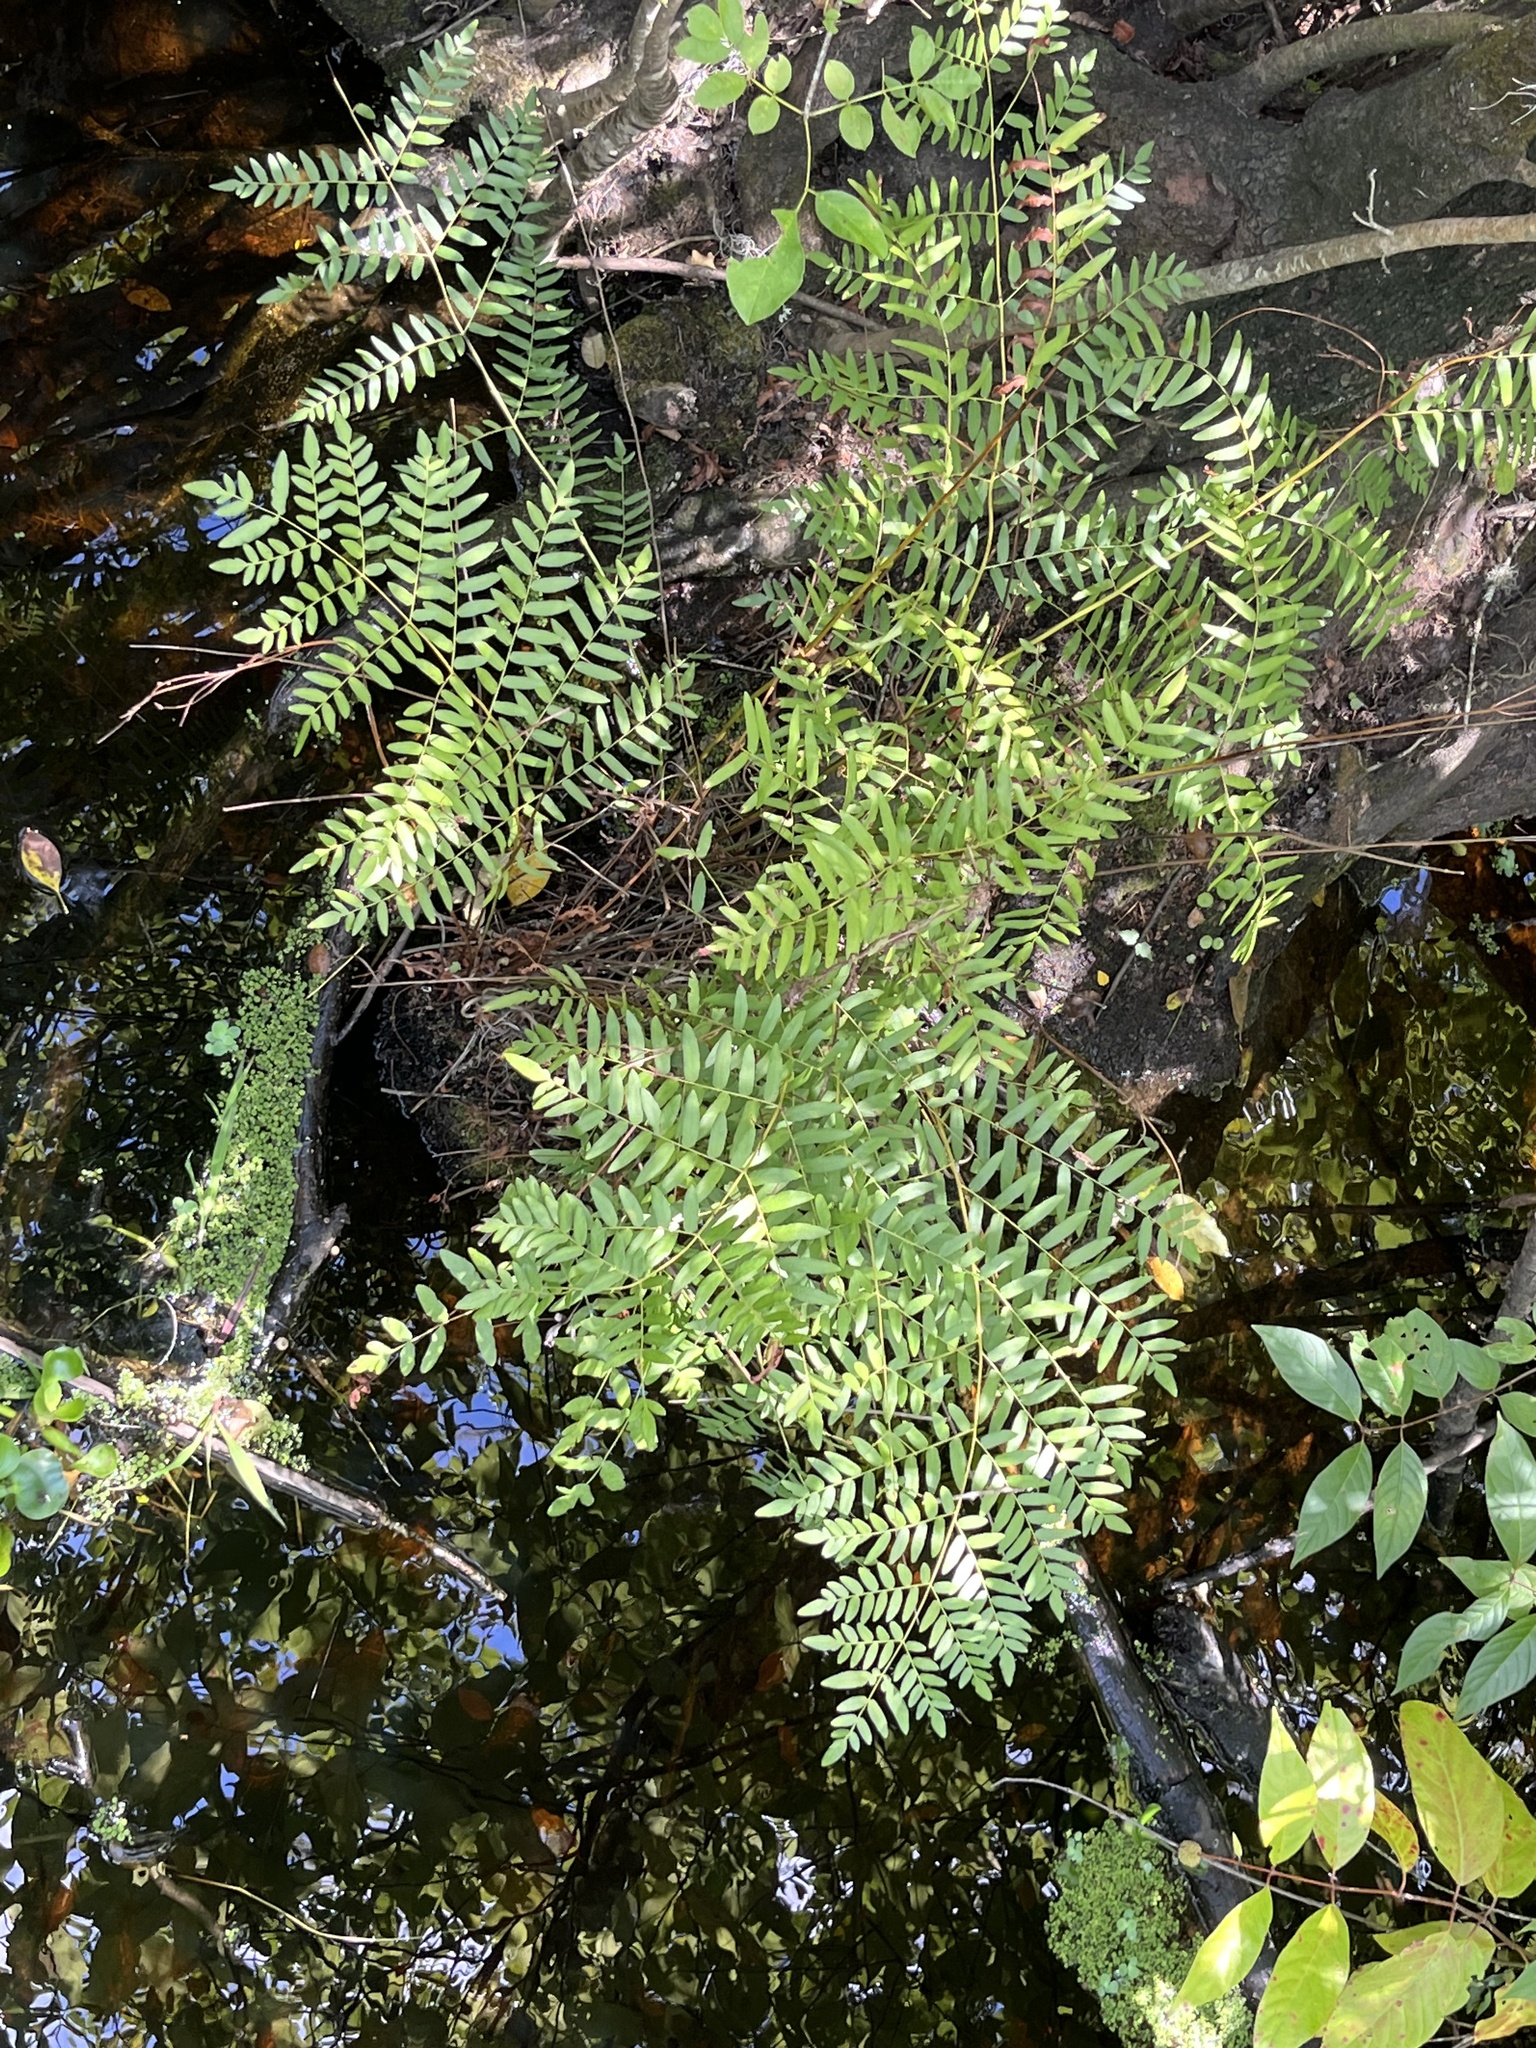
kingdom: Plantae
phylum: Tracheophyta
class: Polypodiopsida
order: Osmundales
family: Osmundaceae
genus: Osmunda
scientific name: Osmunda spectabilis
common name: American royal fern
